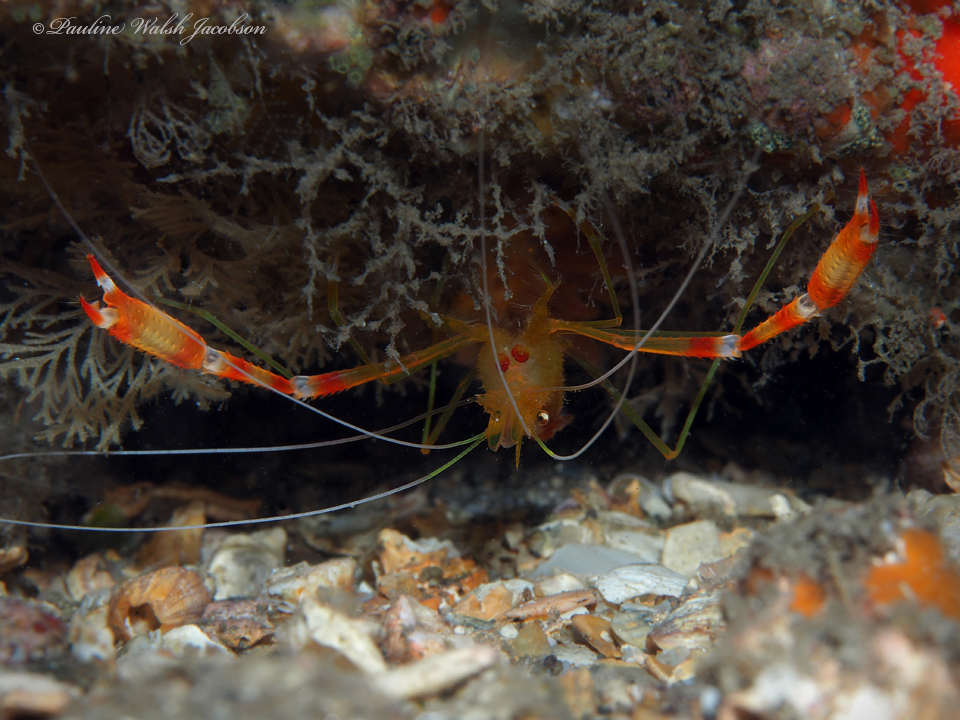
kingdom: Animalia
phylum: Arthropoda
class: Malacostraca
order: Decapoda
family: Stenopodidae
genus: Stenopus
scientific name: Stenopus scutellatus
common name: Golden coral shrimp
